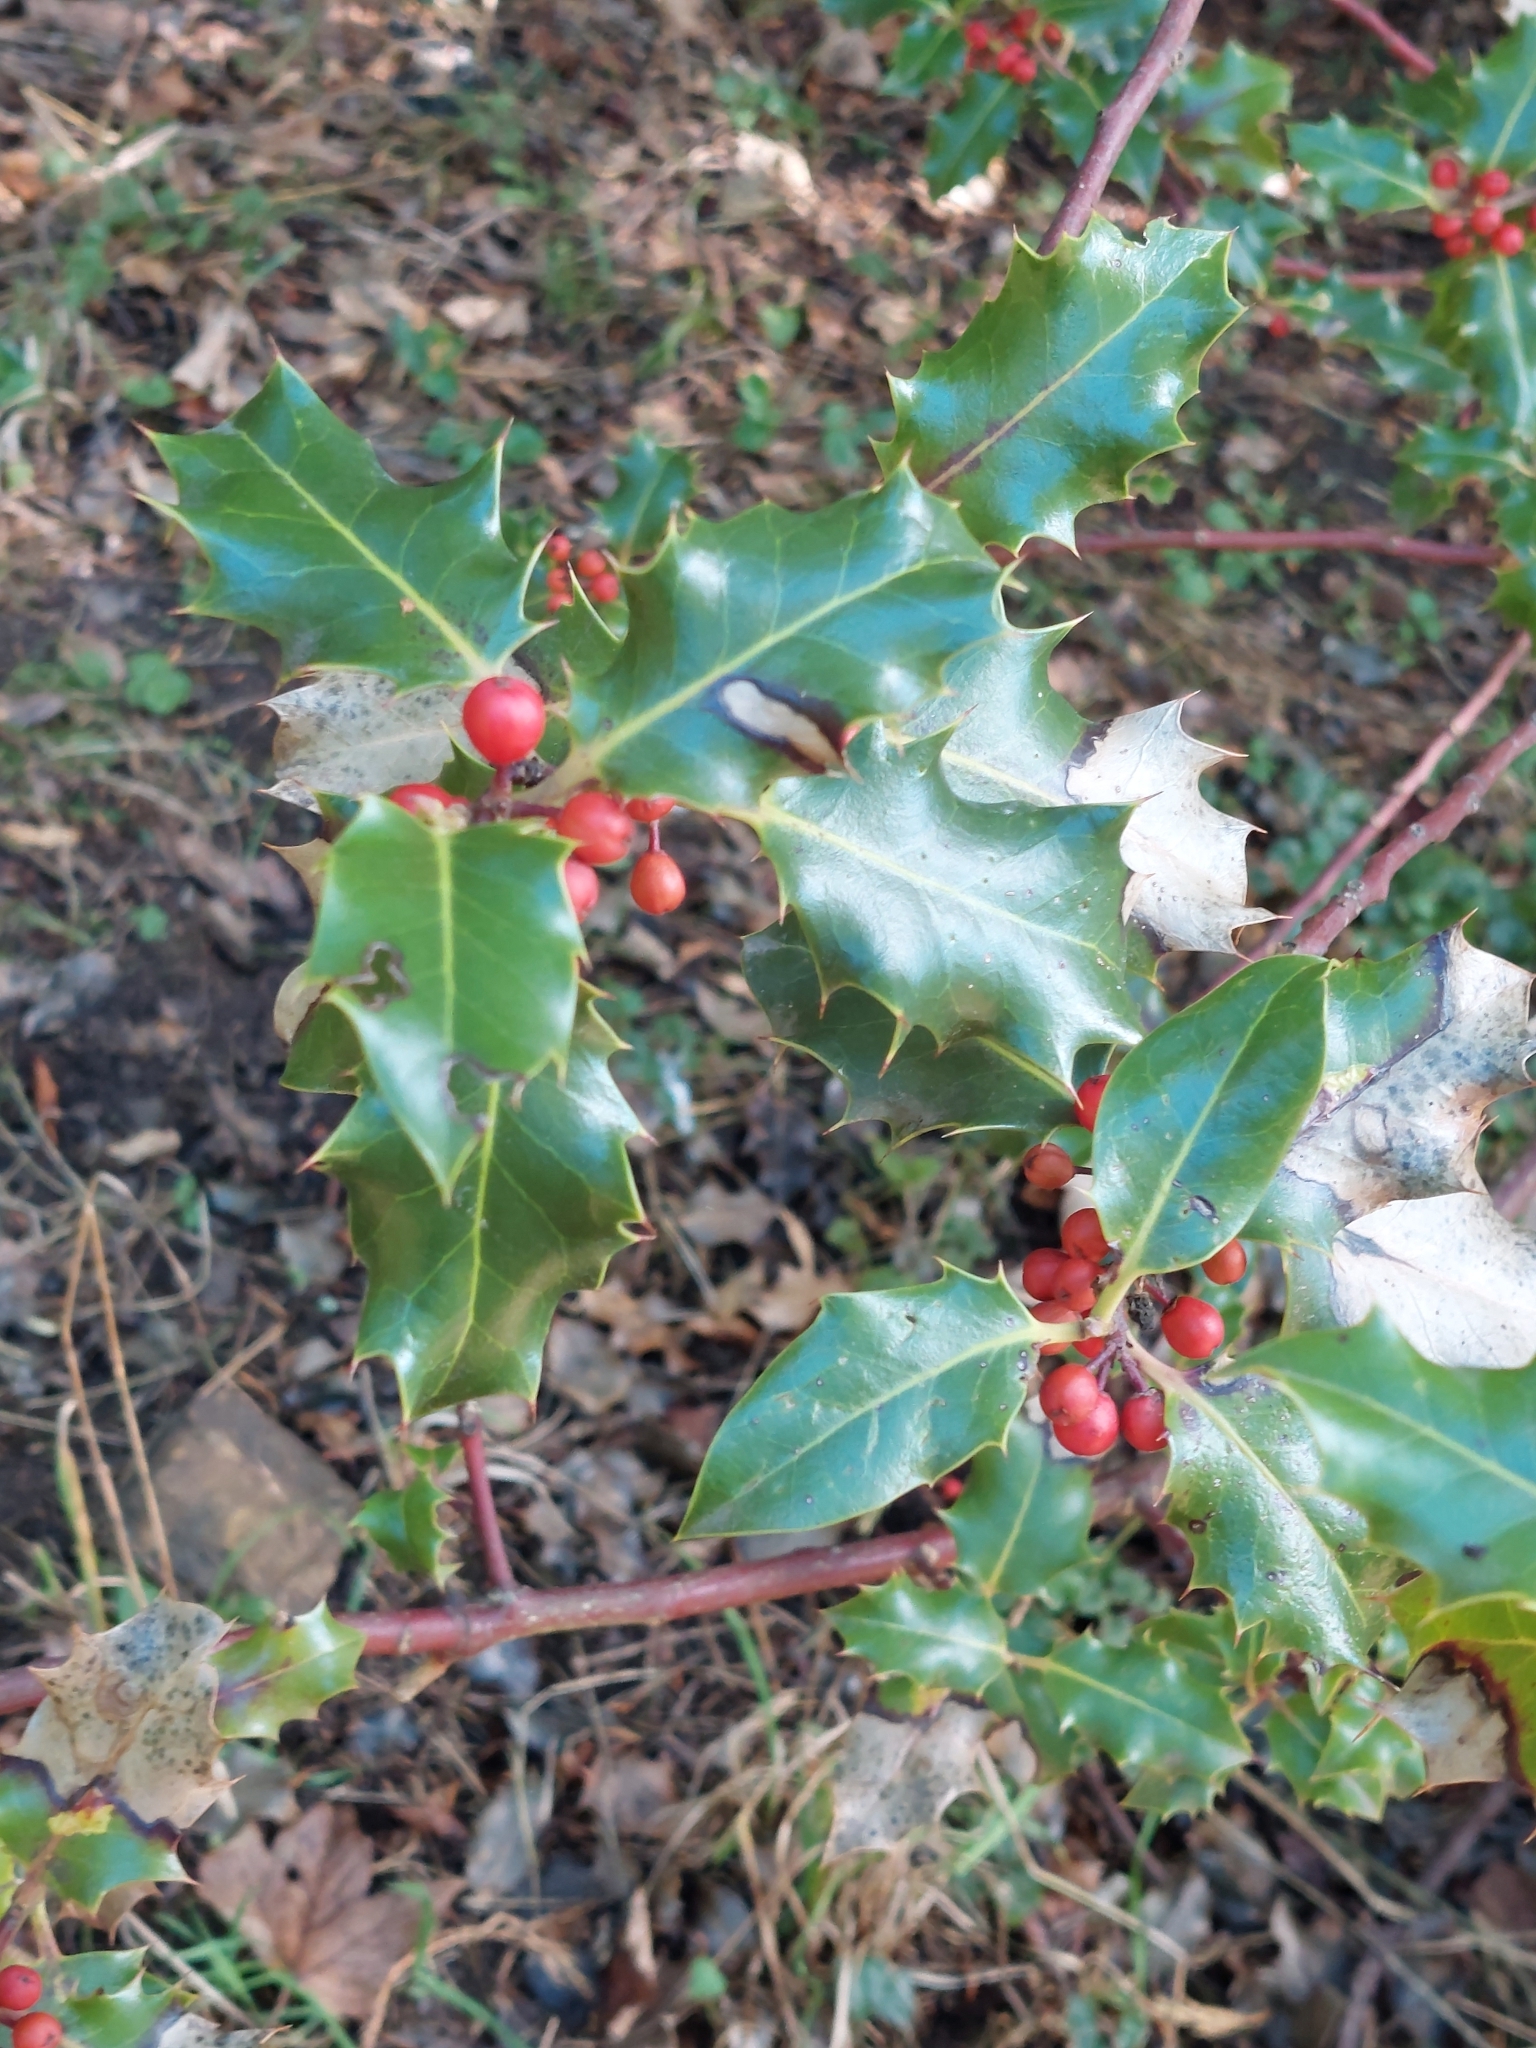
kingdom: Plantae
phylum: Tracheophyta
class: Magnoliopsida
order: Aquifoliales
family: Aquifoliaceae
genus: Ilex
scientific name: Ilex aquifolium
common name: English holly
